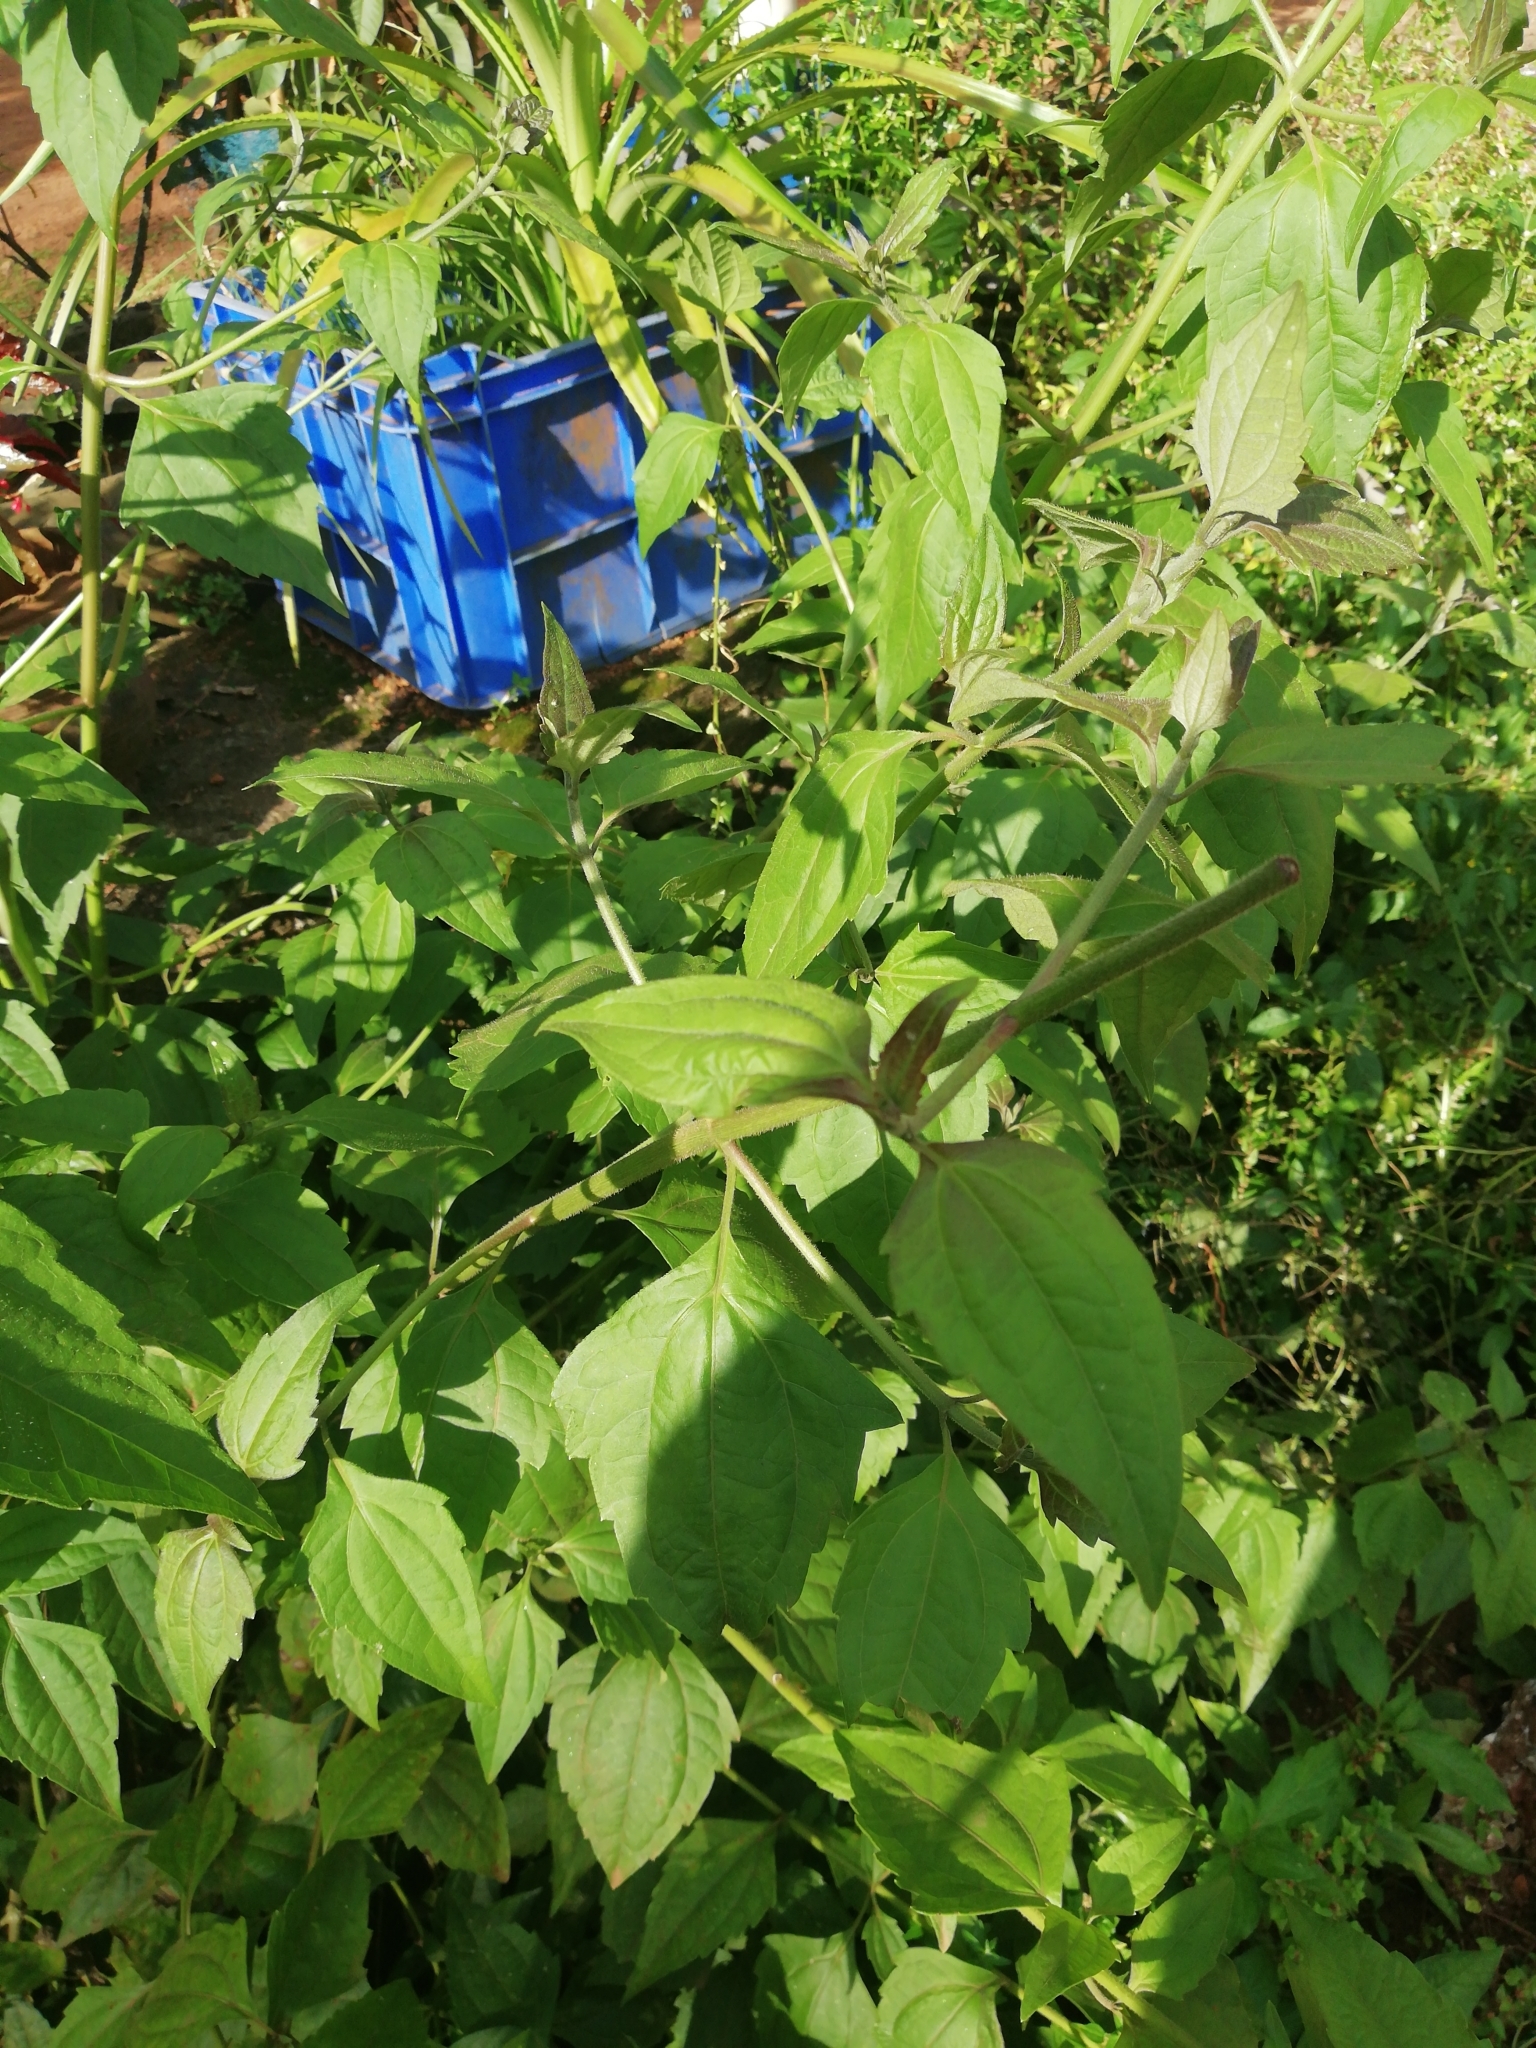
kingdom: Plantae
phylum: Tracheophyta
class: Magnoliopsida
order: Asterales
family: Asteraceae
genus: Chromolaena
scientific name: Chromolaena odorata
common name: Siamweed
